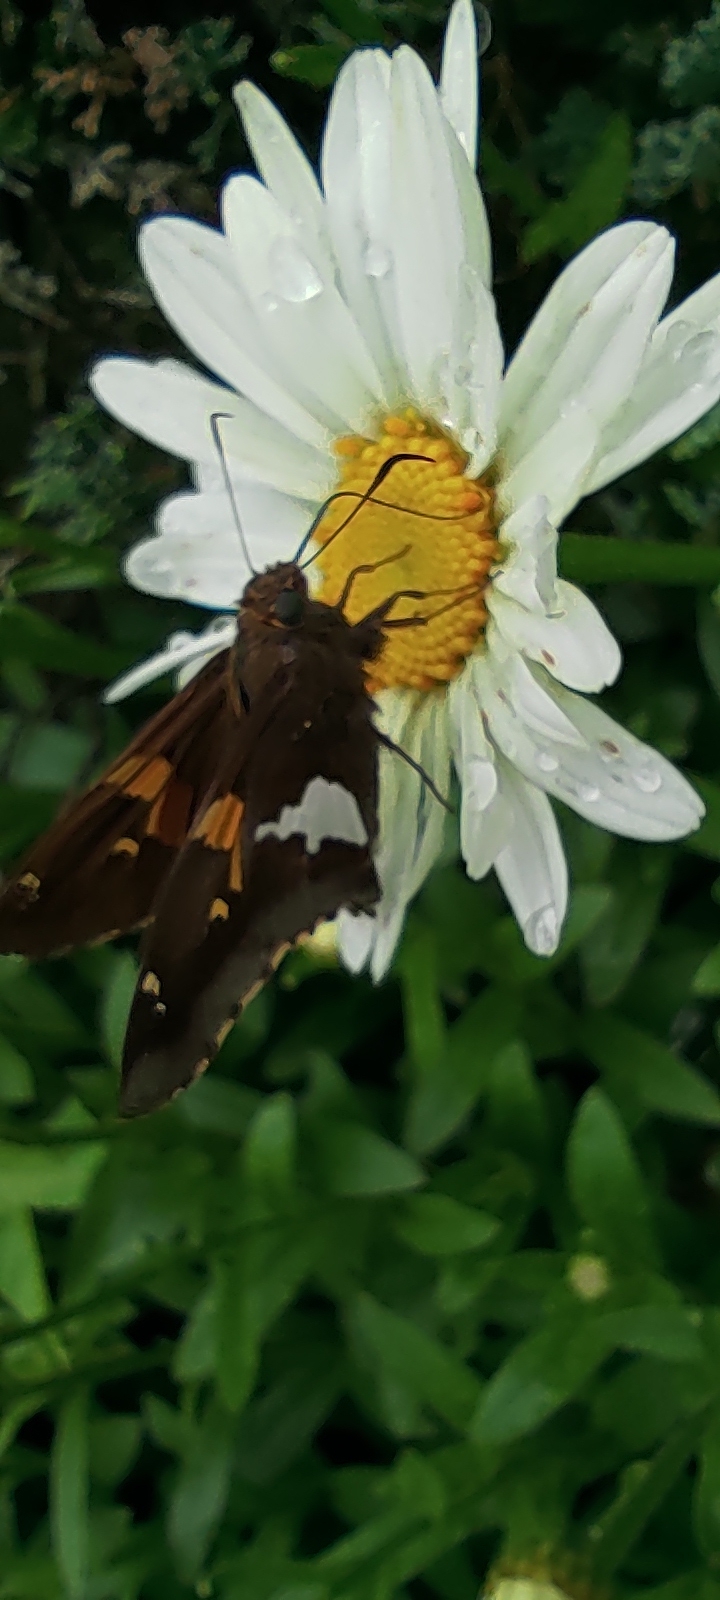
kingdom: Animalia
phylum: Arthropoda
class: Insecta
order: Lepidoptera
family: Hesperiidae
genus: Epargyreus
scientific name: Epargyreus clarus
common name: Silver-spotted skipper
